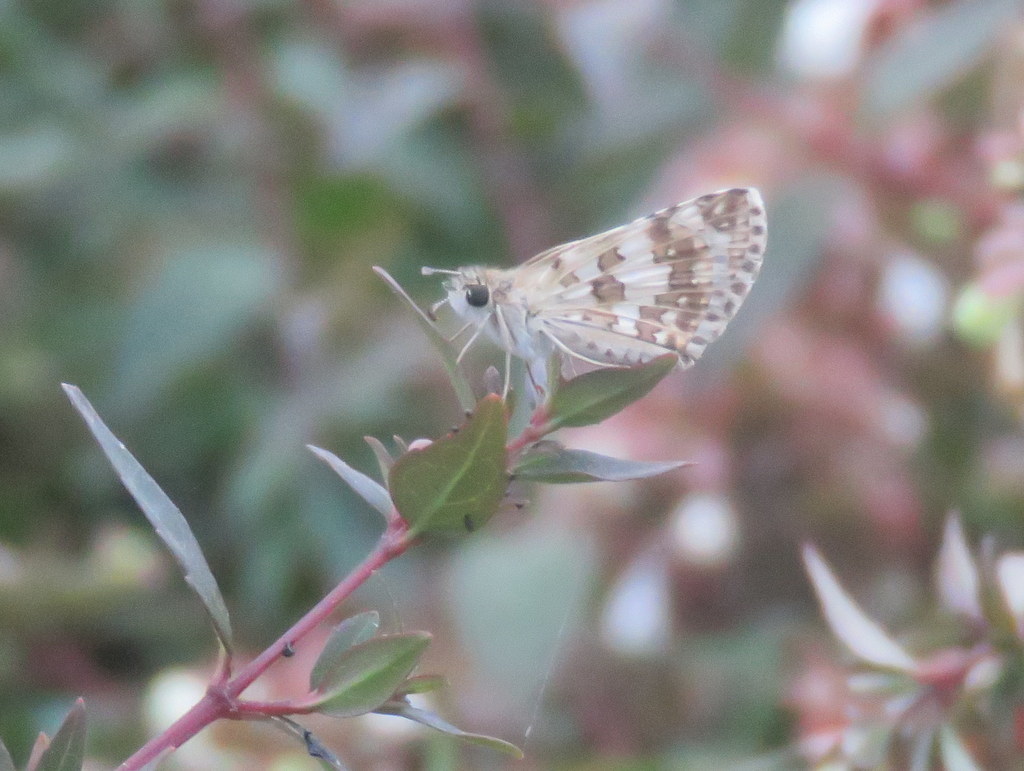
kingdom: Animalia
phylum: Arthropoda
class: Insecta
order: Lepidoptera
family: Hesperiidae
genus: Burnsius
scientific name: Burnsius orcynoides
